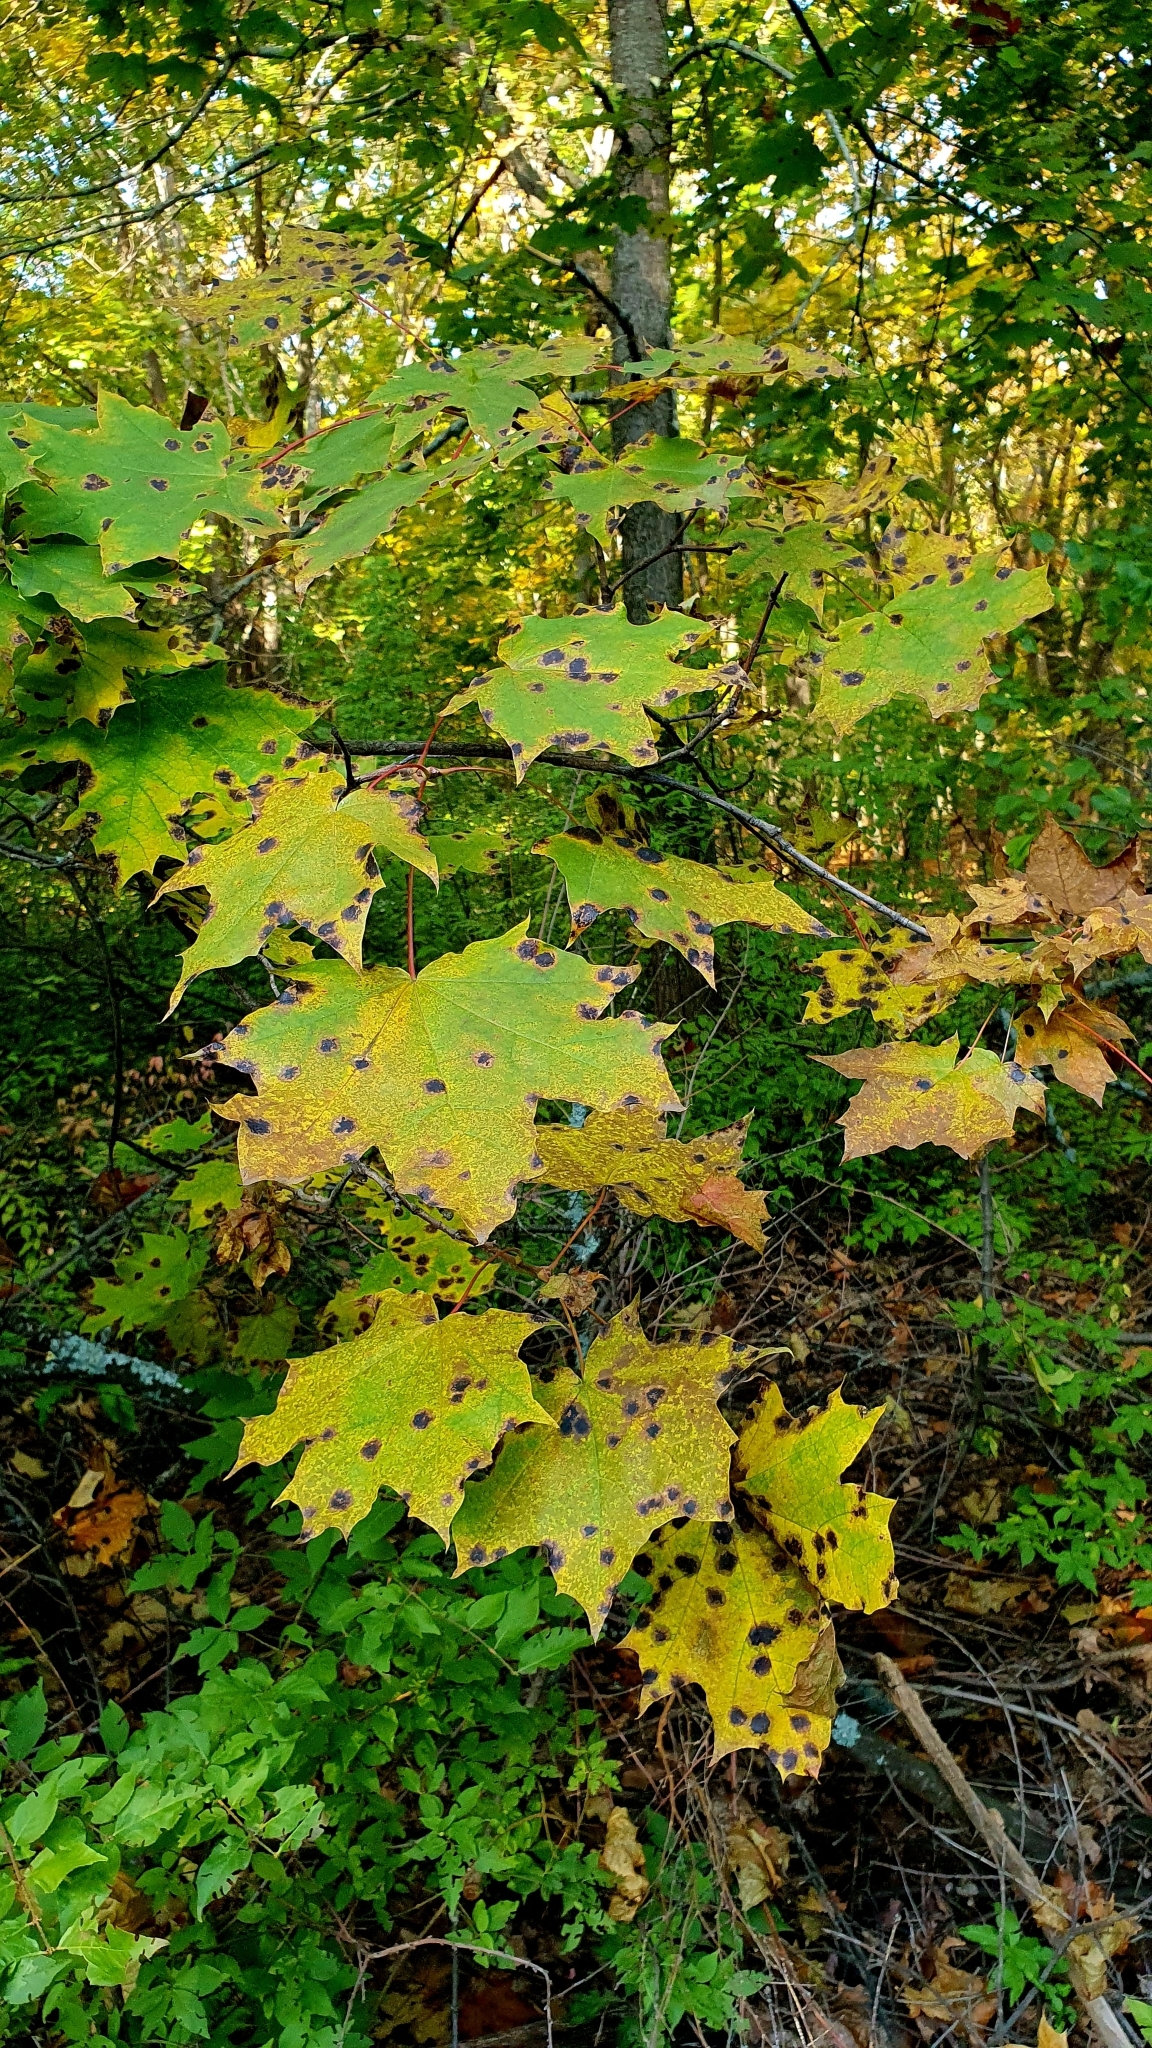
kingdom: Plantae
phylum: Tracheophyta
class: Magnoliopsida
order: Sapindales
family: Sapindaceae
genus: Acer
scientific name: Acer platanoides
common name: Norway maple
